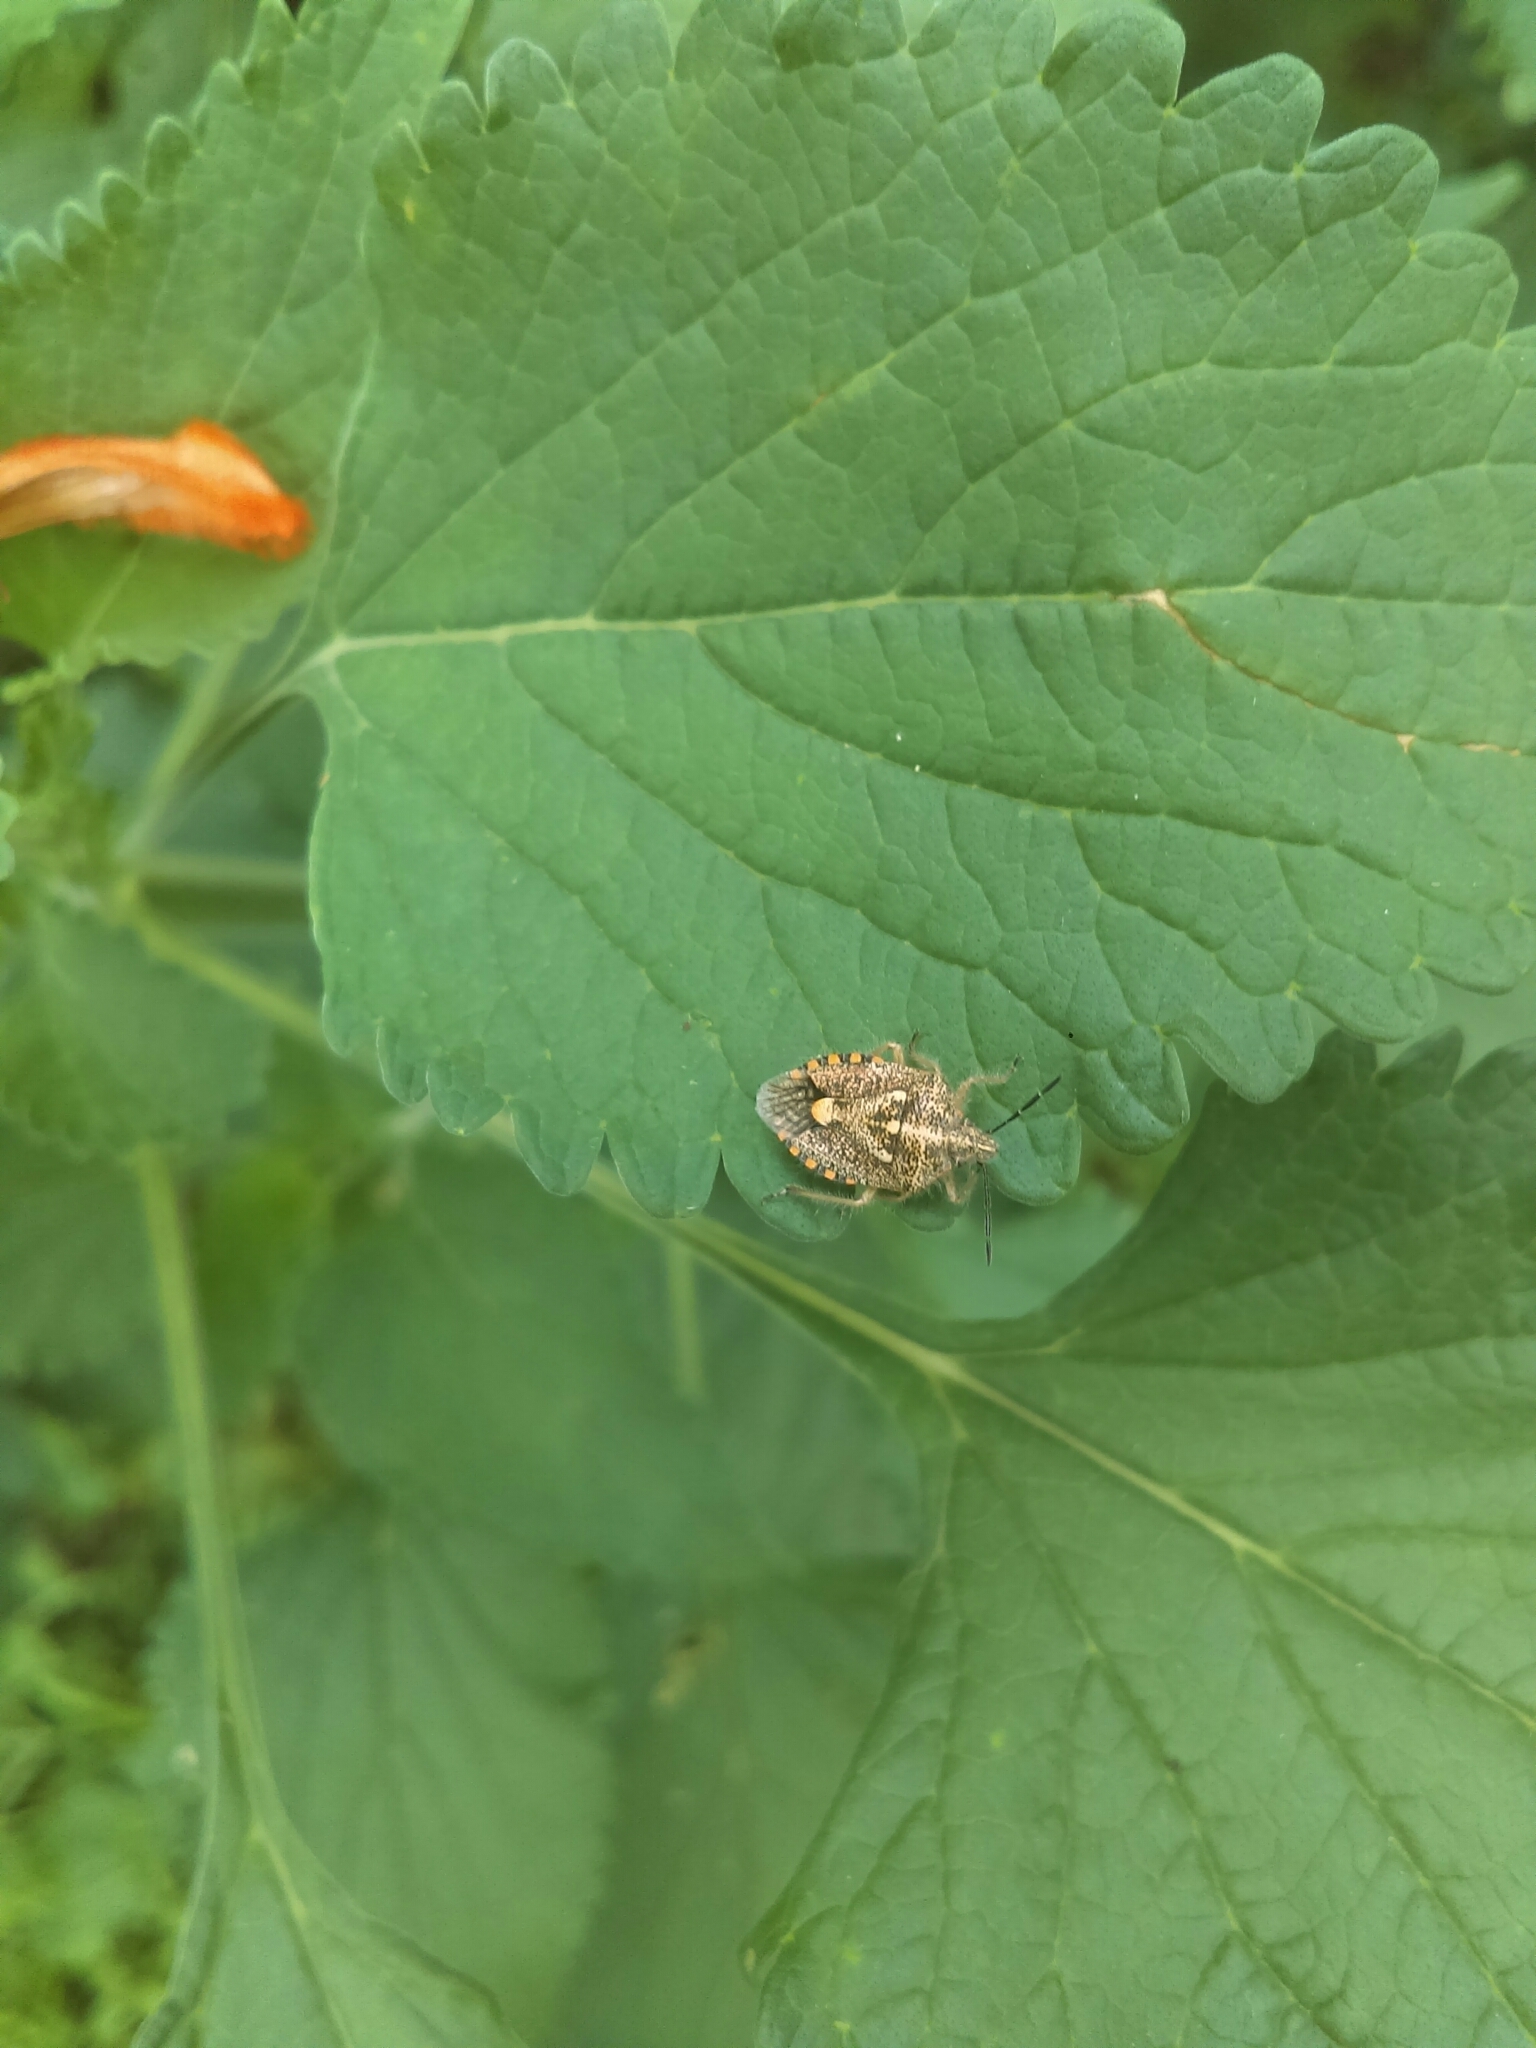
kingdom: Animalia
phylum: Arthropoda
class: Insecta
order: Hemiptera
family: Pentatomidae
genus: Agonoscelis
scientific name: Agonoscelis puberula
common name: African cluster bug
